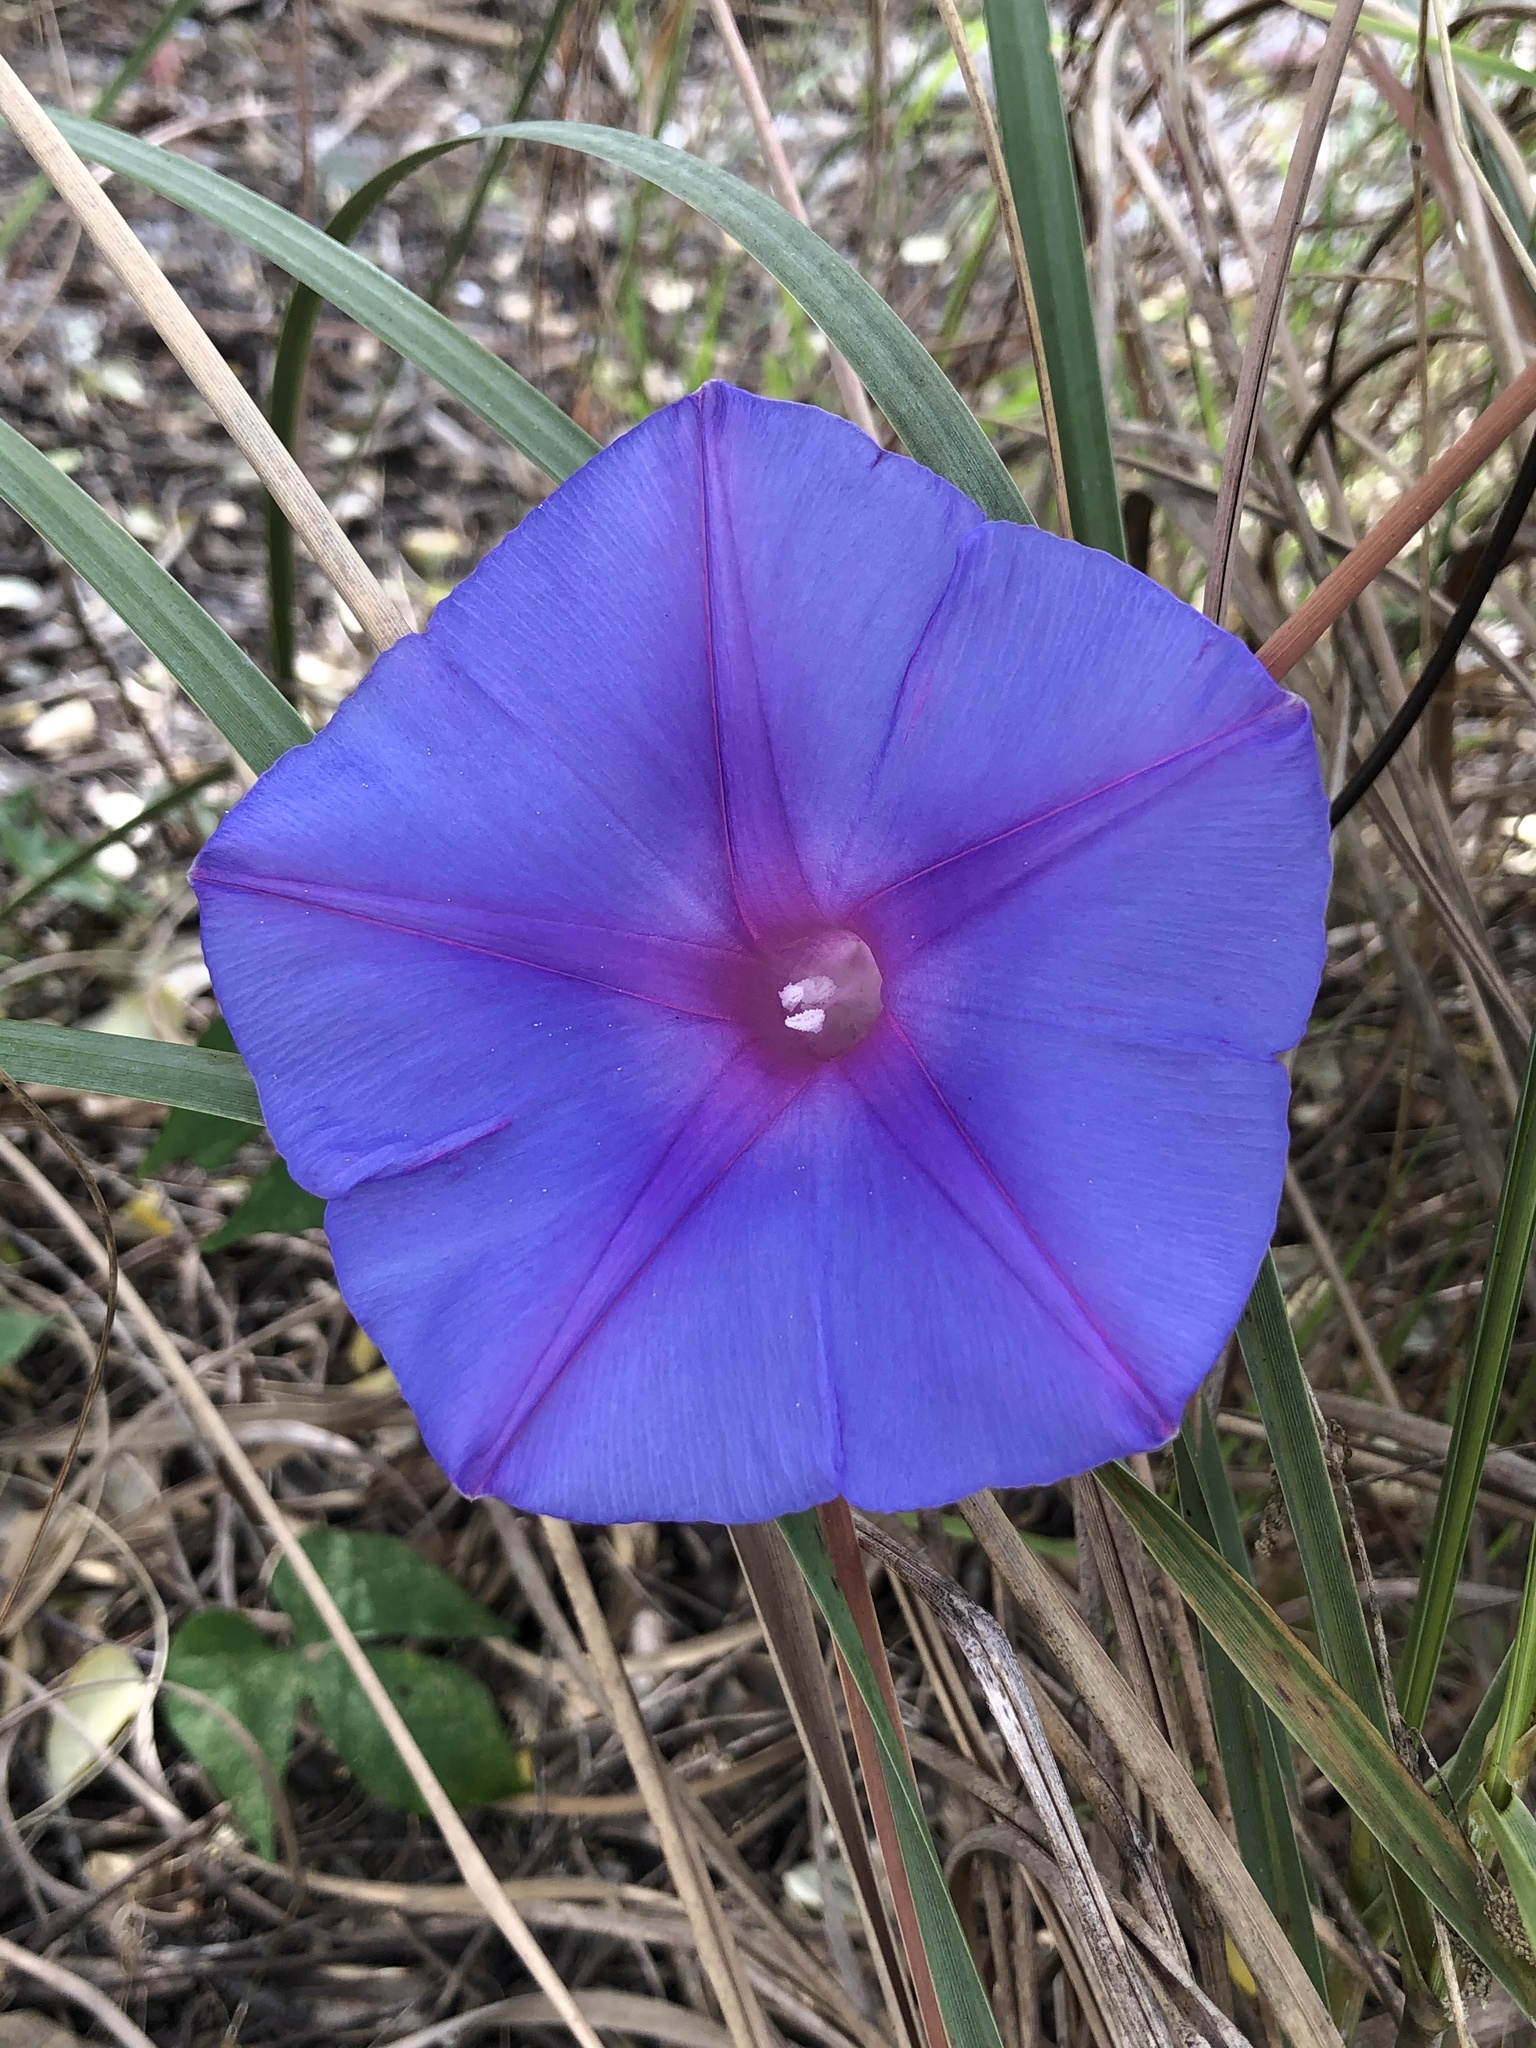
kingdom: Plantae
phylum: Tracheophyta
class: Magnoliopsida
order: Solanales
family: Convolvulaceae
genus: Ipomoea
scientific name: Ipomoea indica
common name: Blue dawnflower
